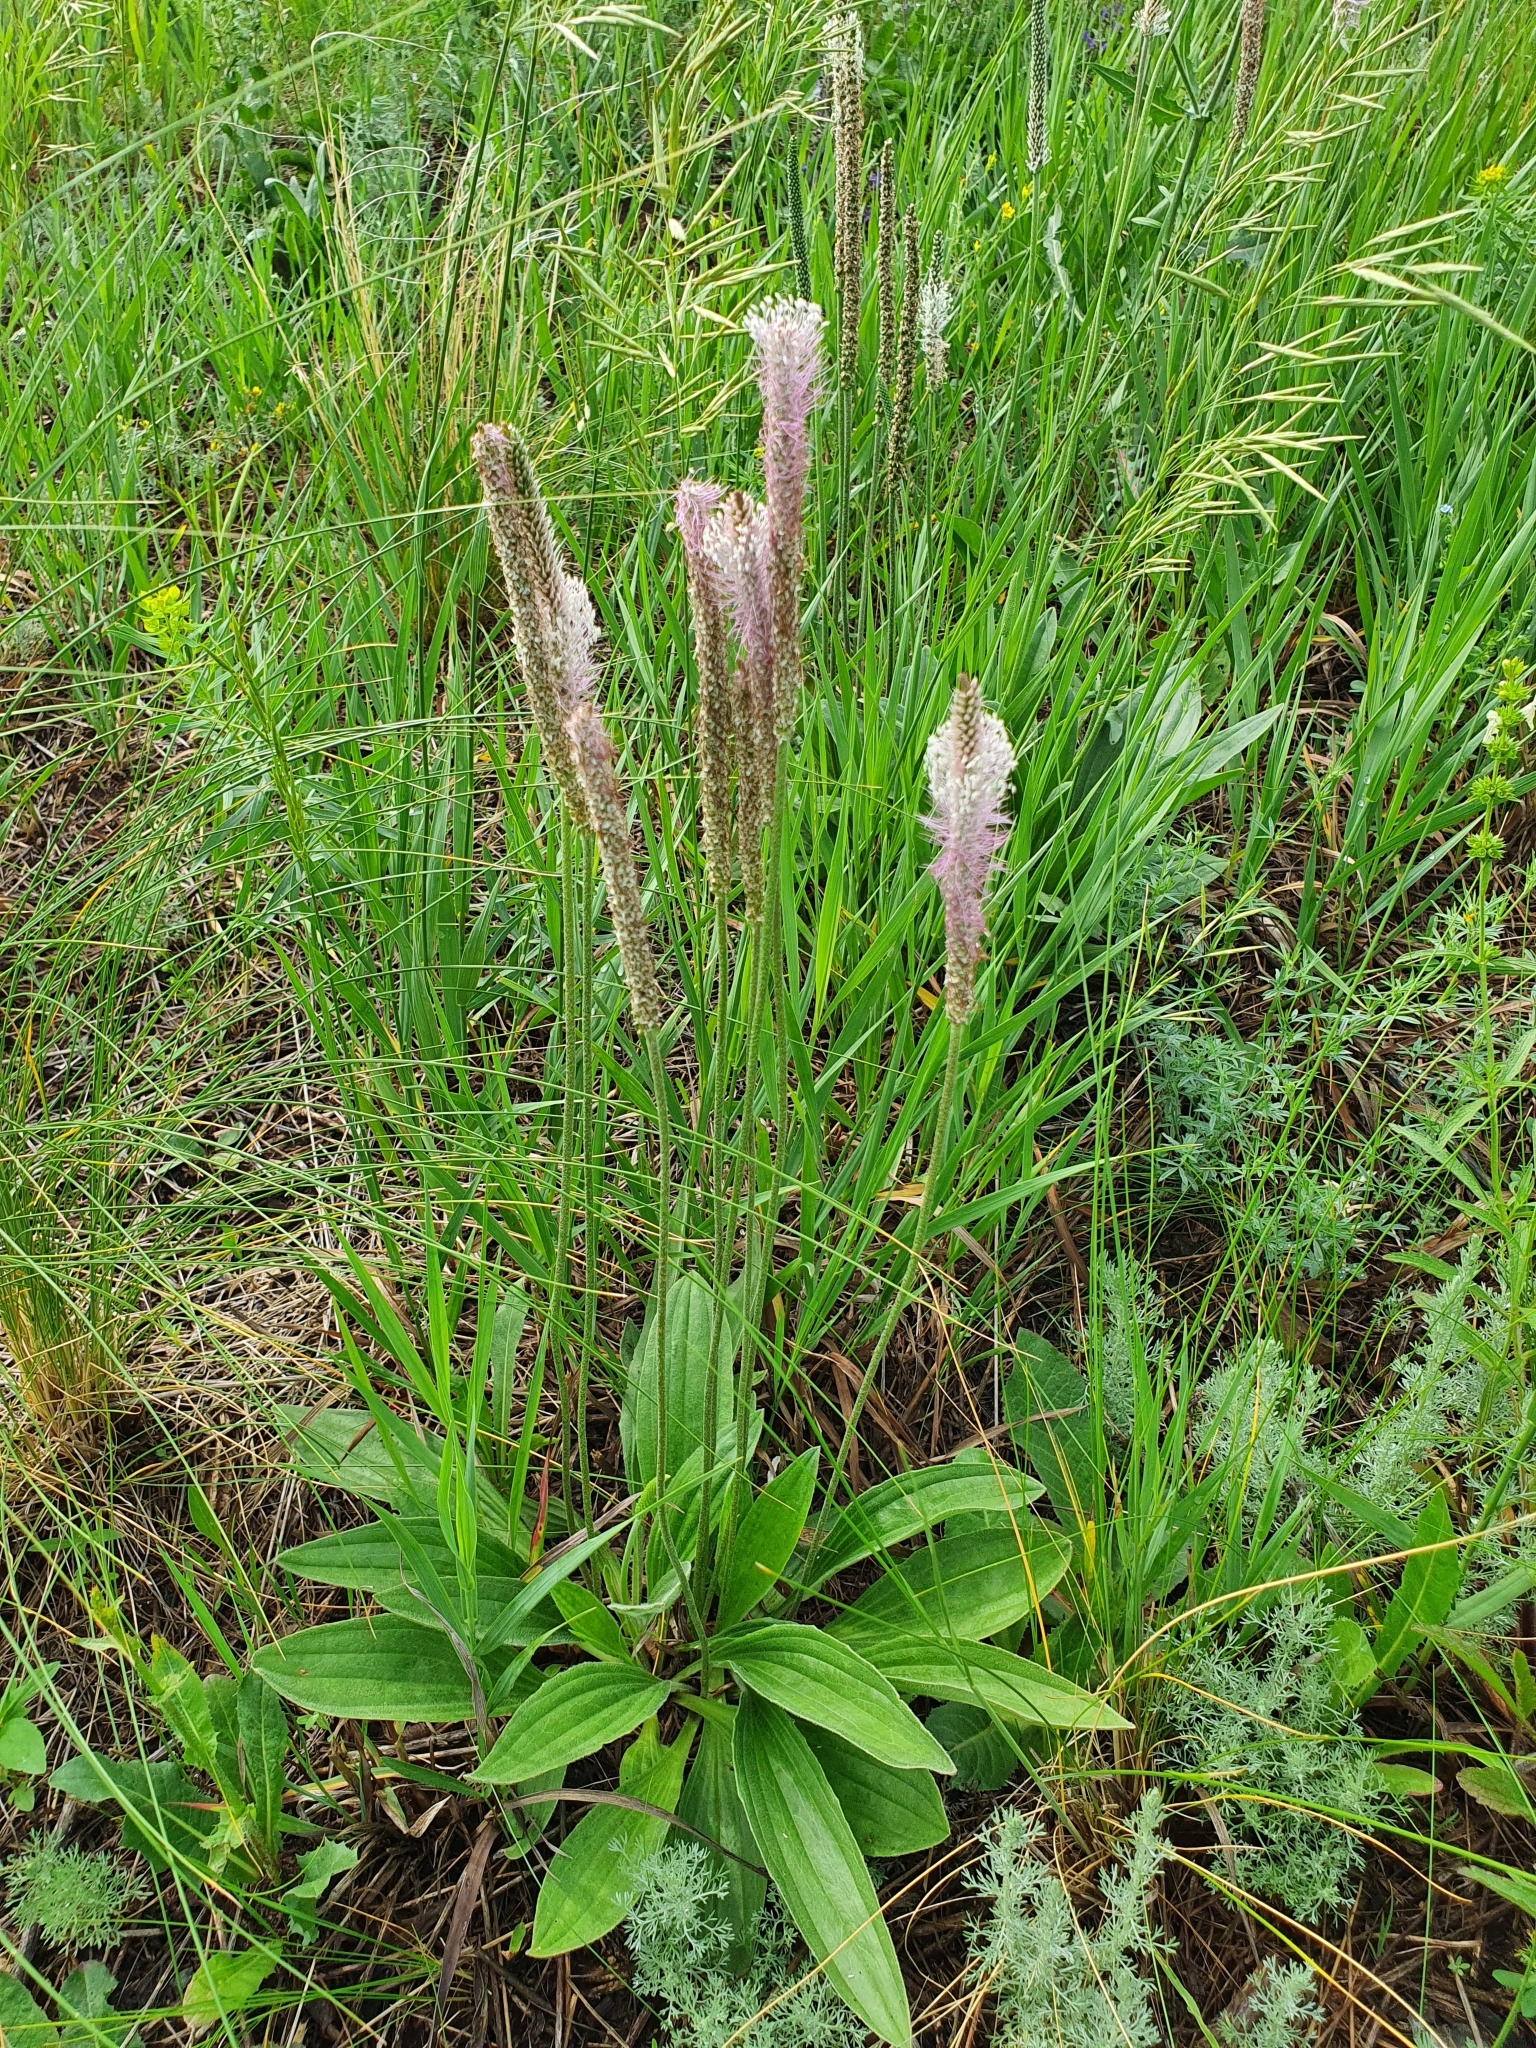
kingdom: Plantae
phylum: Tracheophyta
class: Magnoliopsida
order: Lamiales
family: Plantaginaceae
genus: Plantago
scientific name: Plantago urvillei
